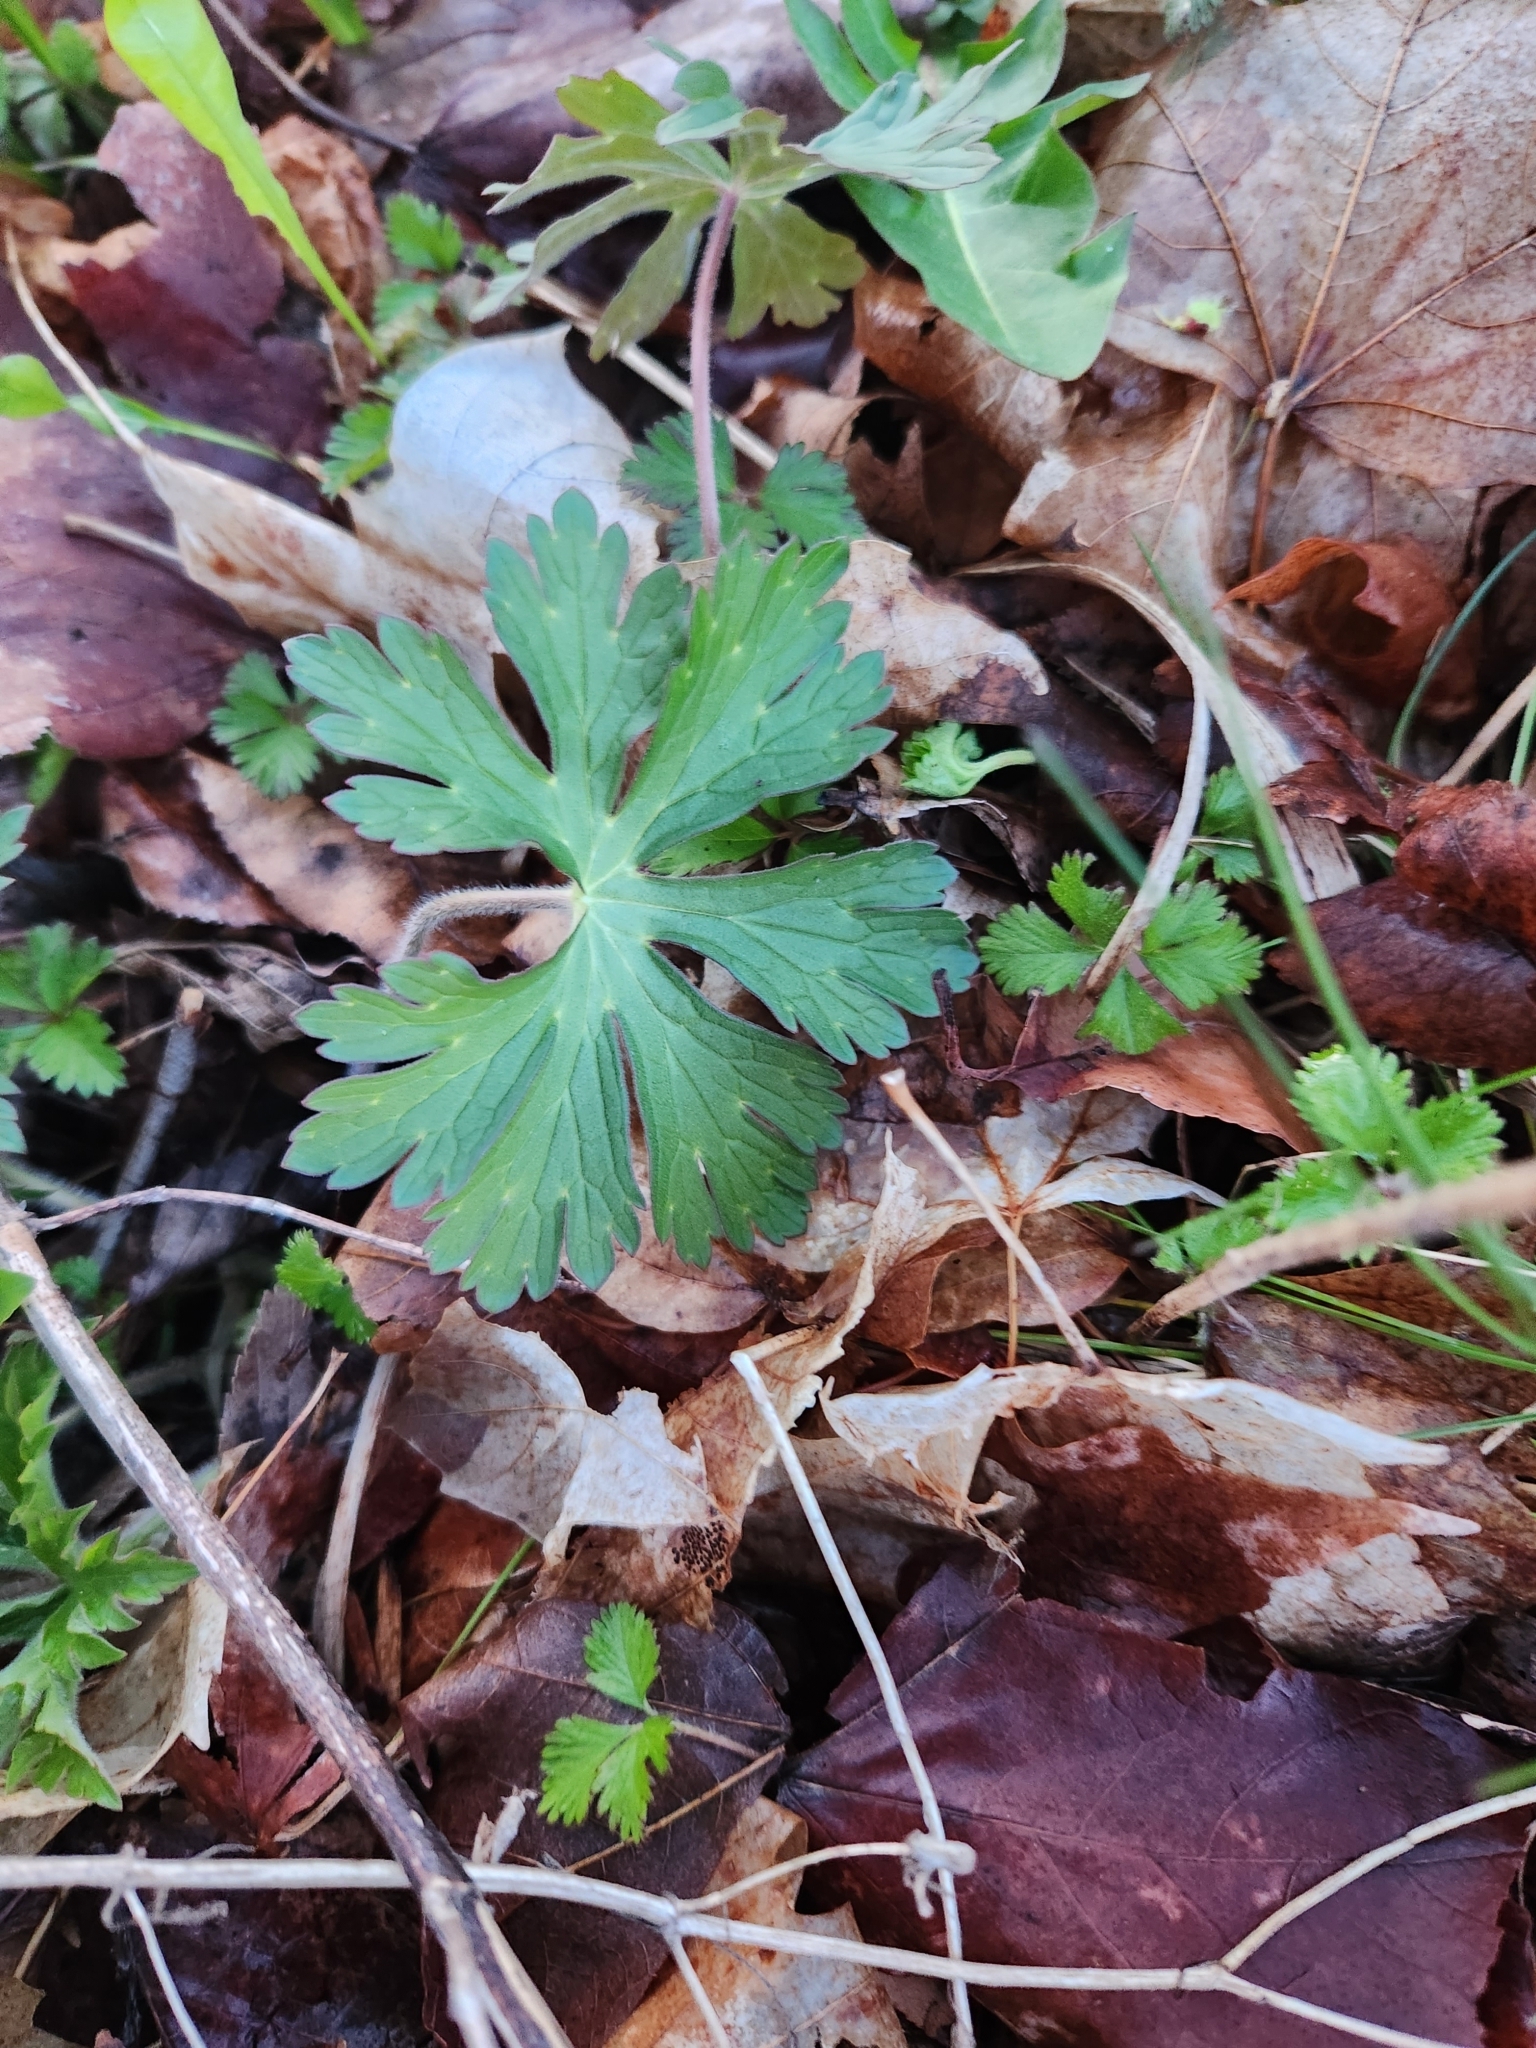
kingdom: Plantae
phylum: Tracheophyta
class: Magnoliopsida
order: Geraniales
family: Geraniaceae
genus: Geranium
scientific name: Geranium maculatum
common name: Spotted geranium
